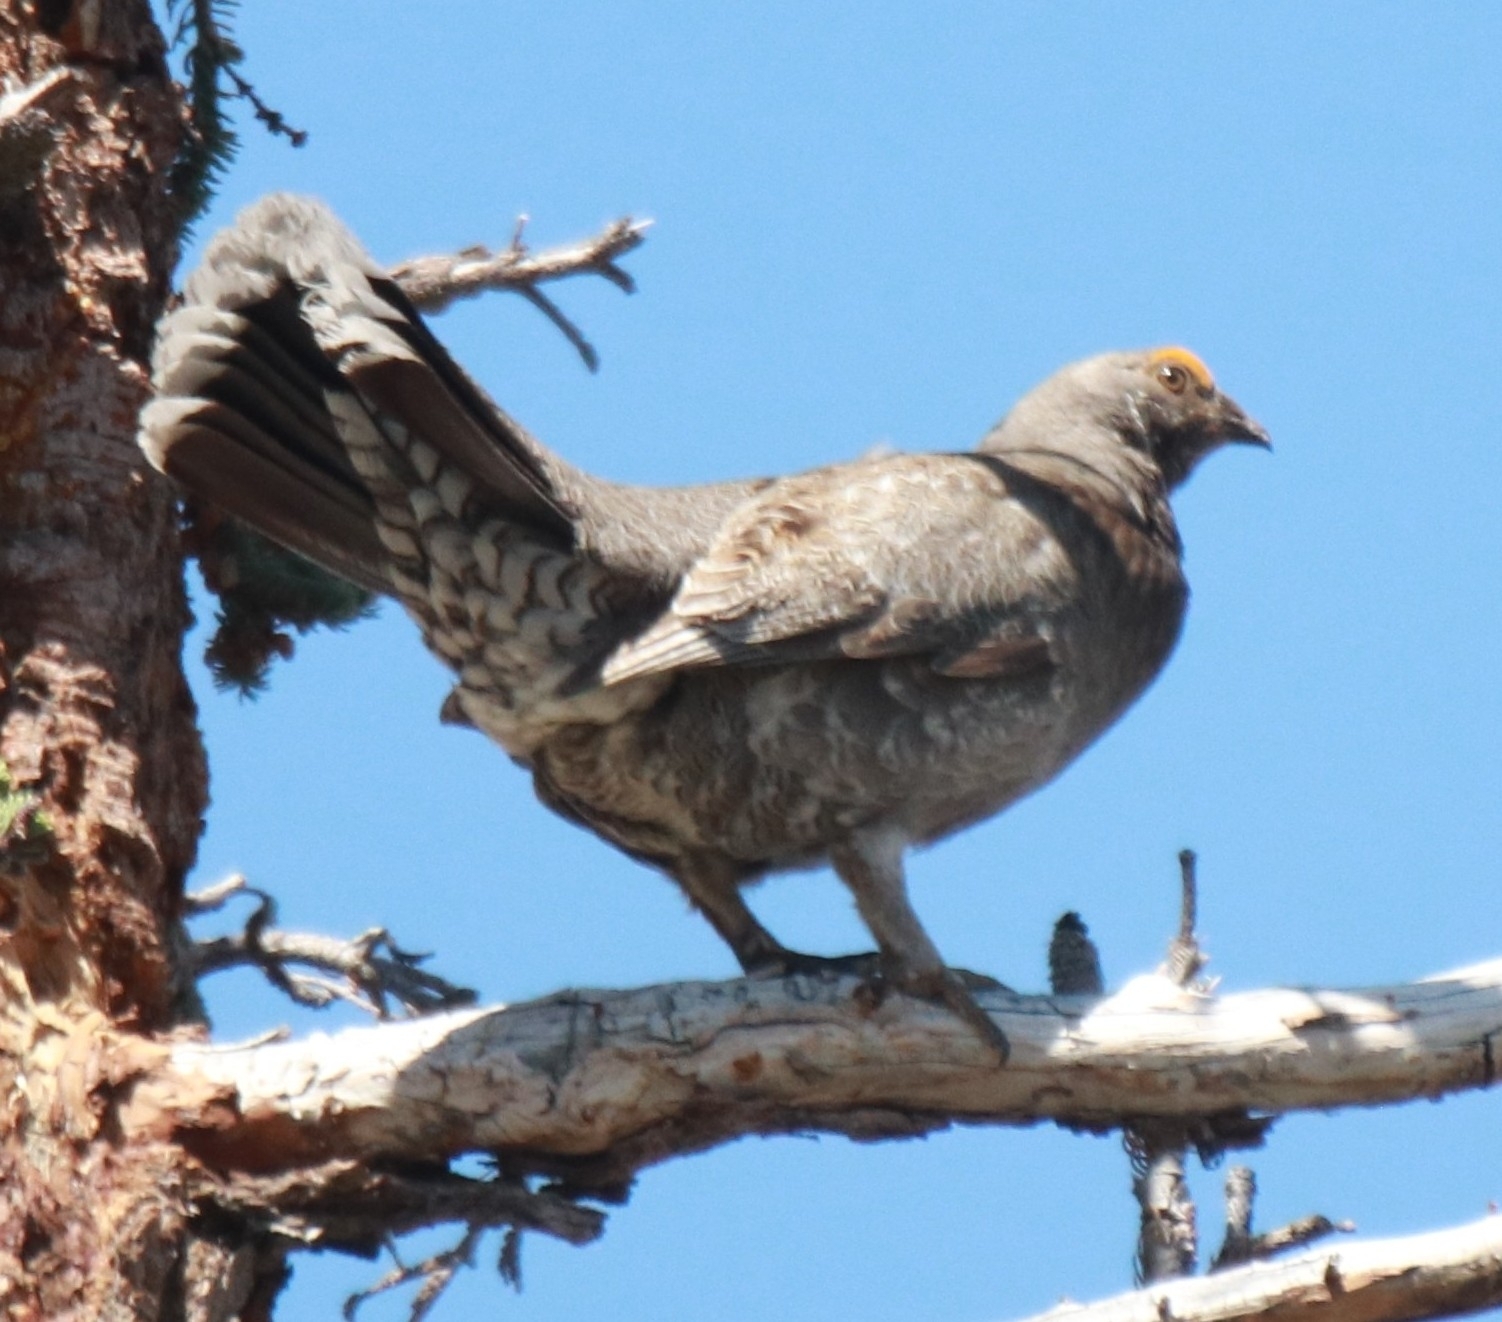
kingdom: Animalia
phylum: Chordata
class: Aves
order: Galliformes
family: Phasianidae
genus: Dendragapus
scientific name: Dendragapus fuliginosus
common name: Sooty grouse
